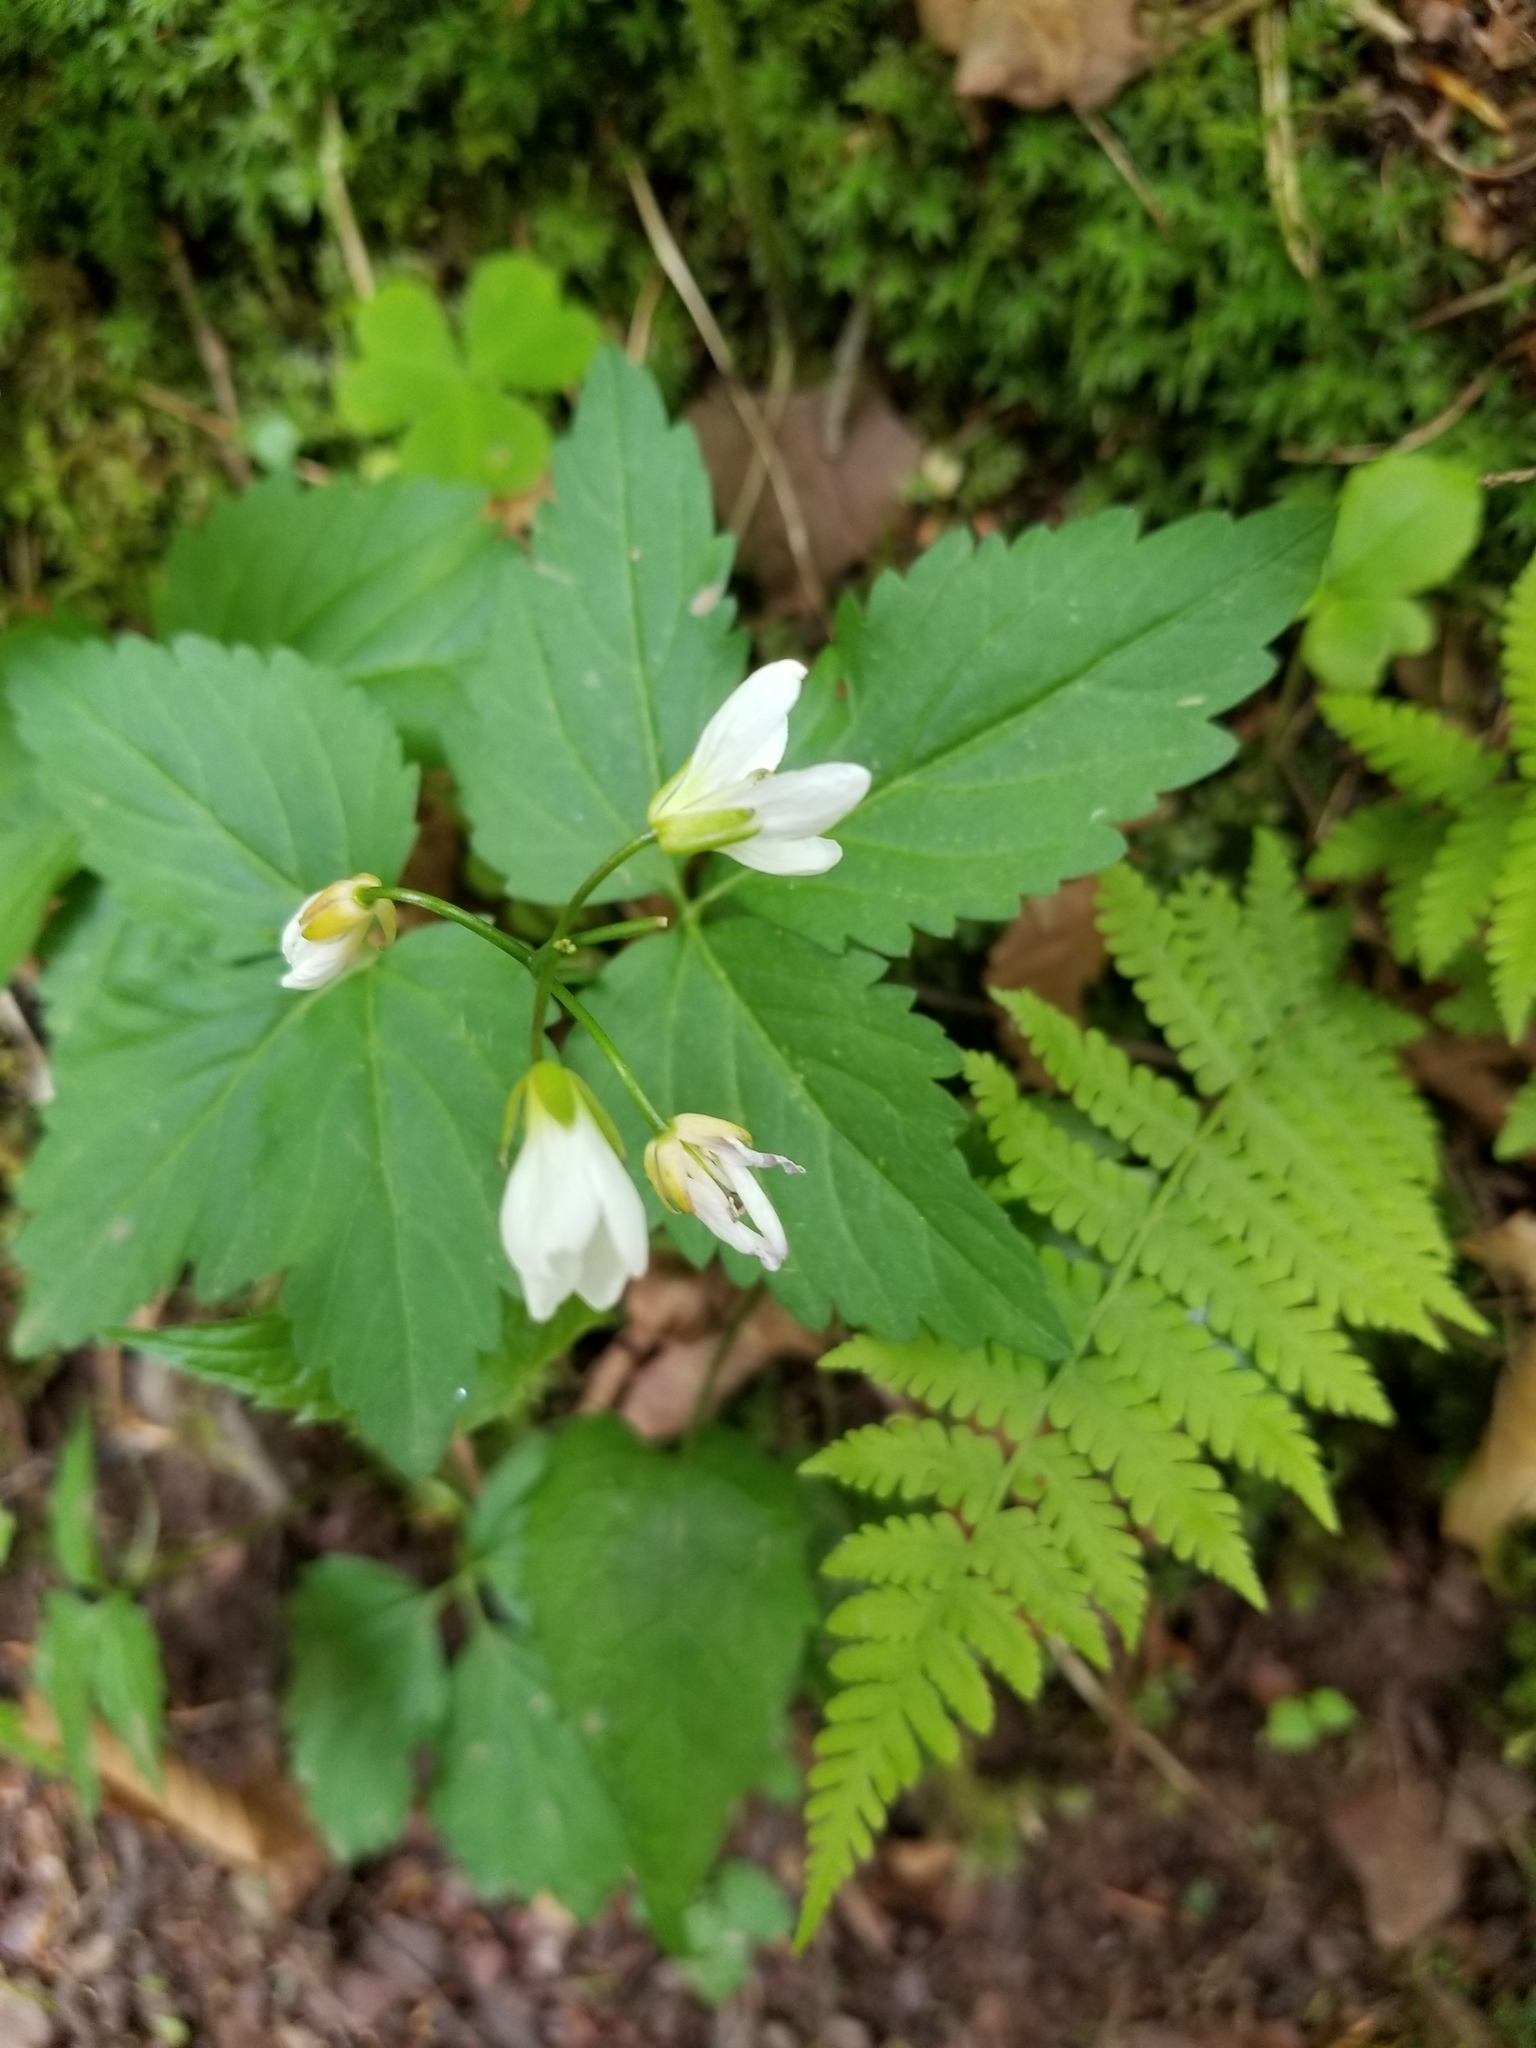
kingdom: Plantae
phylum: Tracheophyta
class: Magnoliopsida
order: Brassicales
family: Brassicaceae
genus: Cardamine
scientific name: Cardamine diphylla
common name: Broad-leaved toothwort
